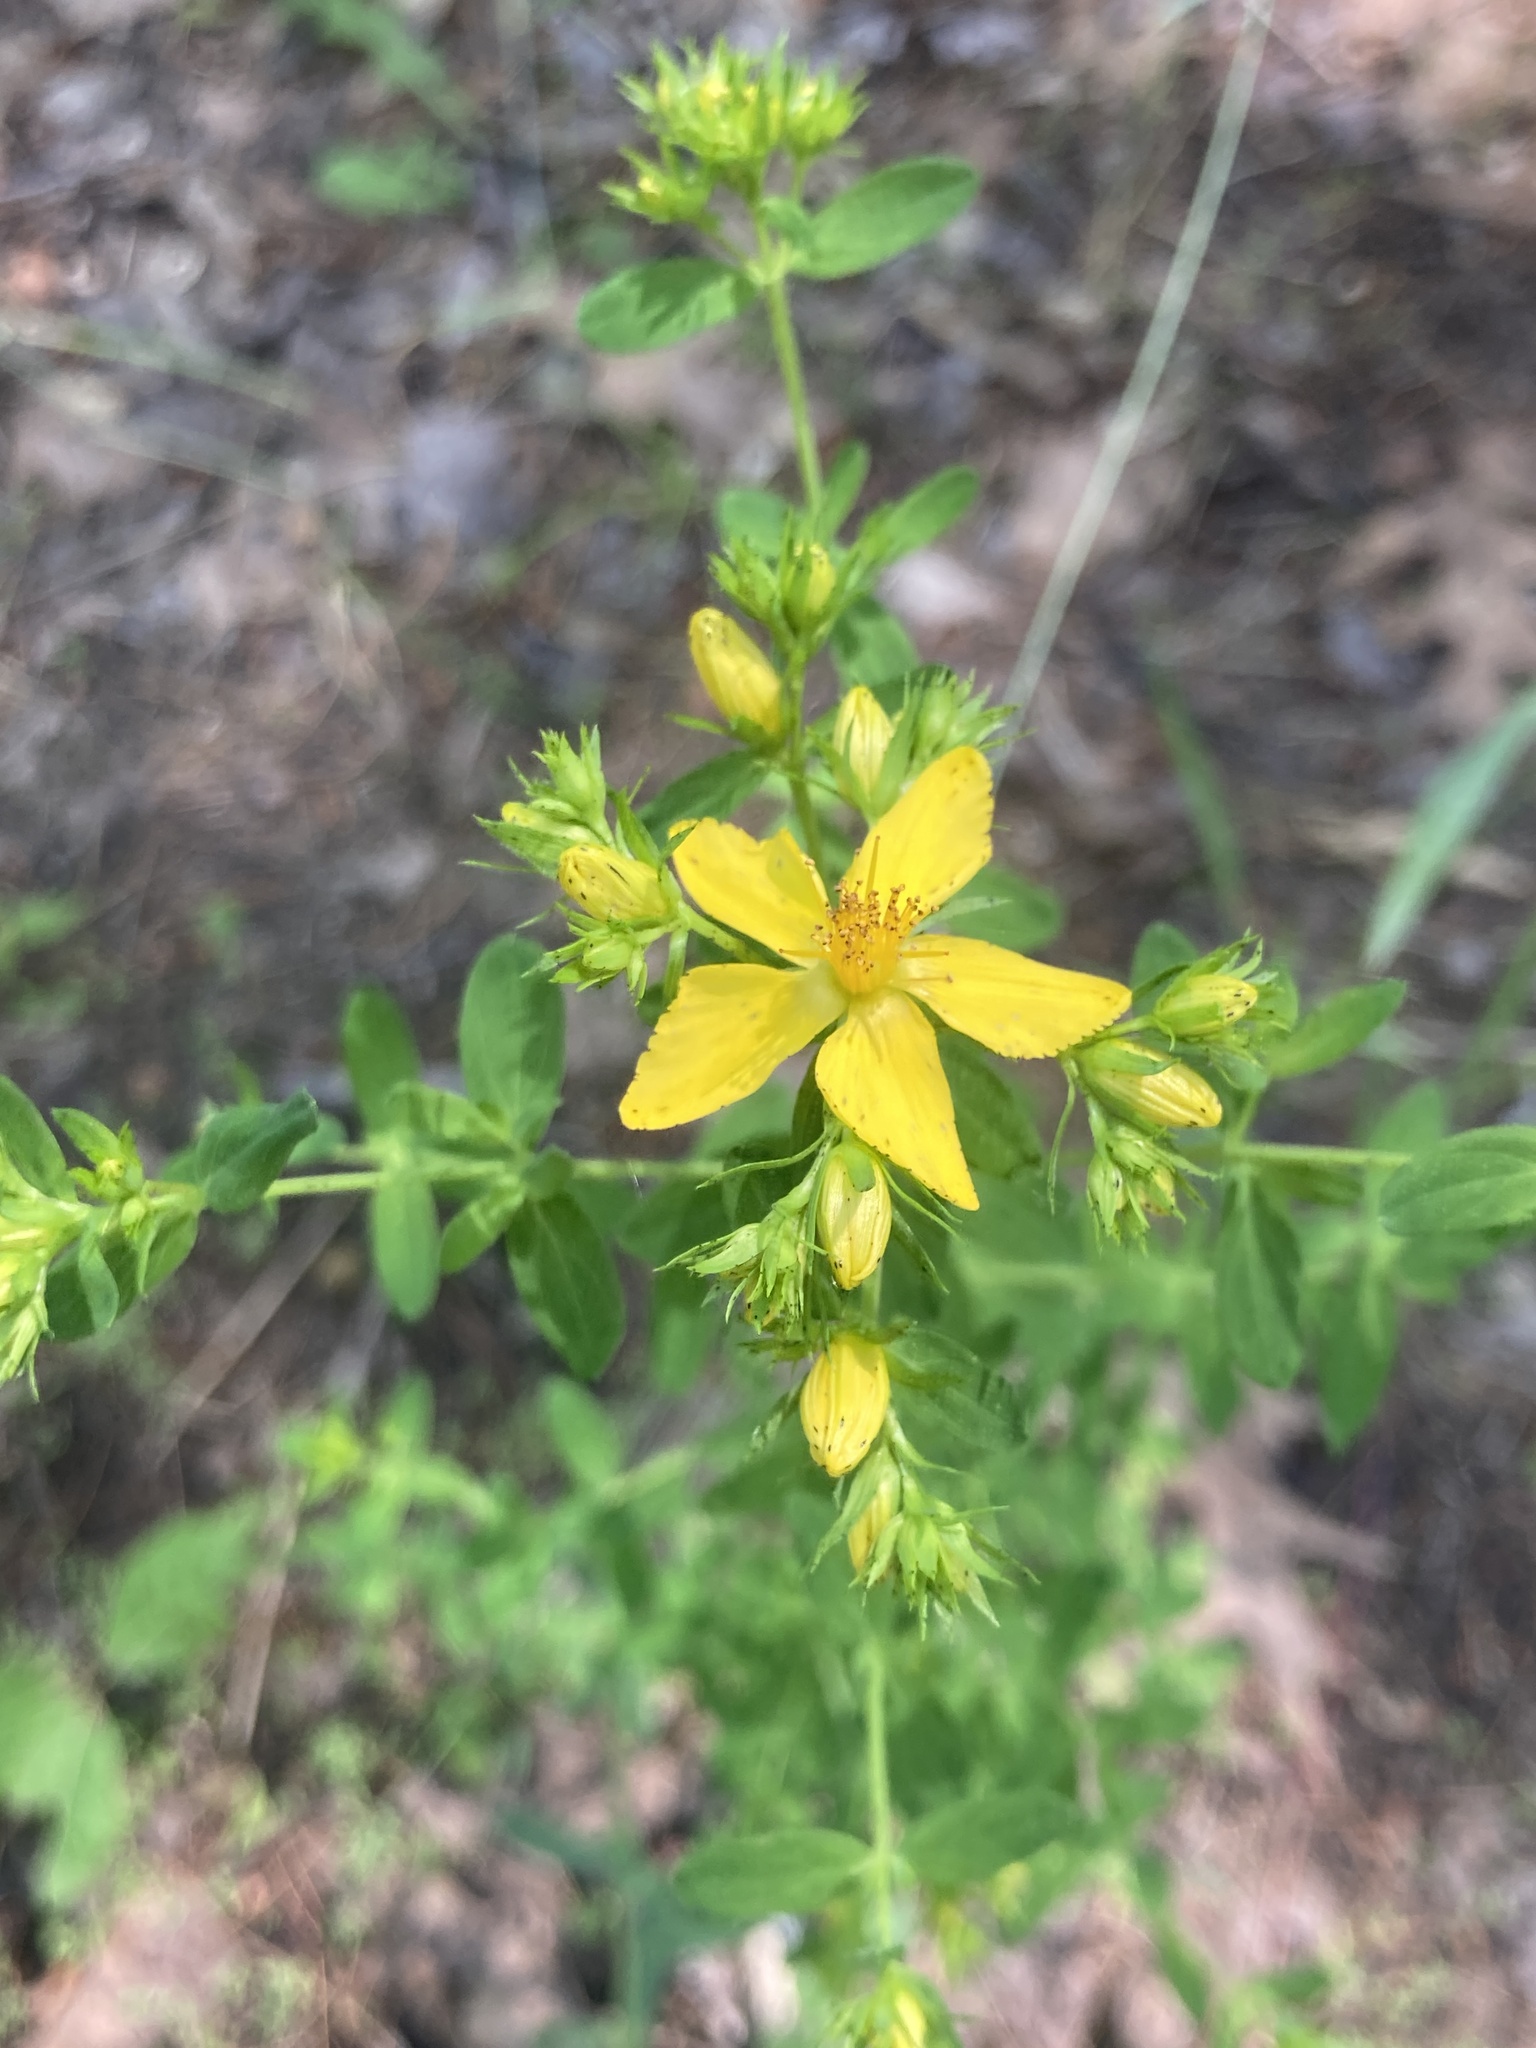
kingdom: Plantae
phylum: Tracheophyta
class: Magnoliopsida
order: Malpighiales
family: Hypericaceae
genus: Hypericum
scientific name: Hypericum perforatum
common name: Common st. johnswort
